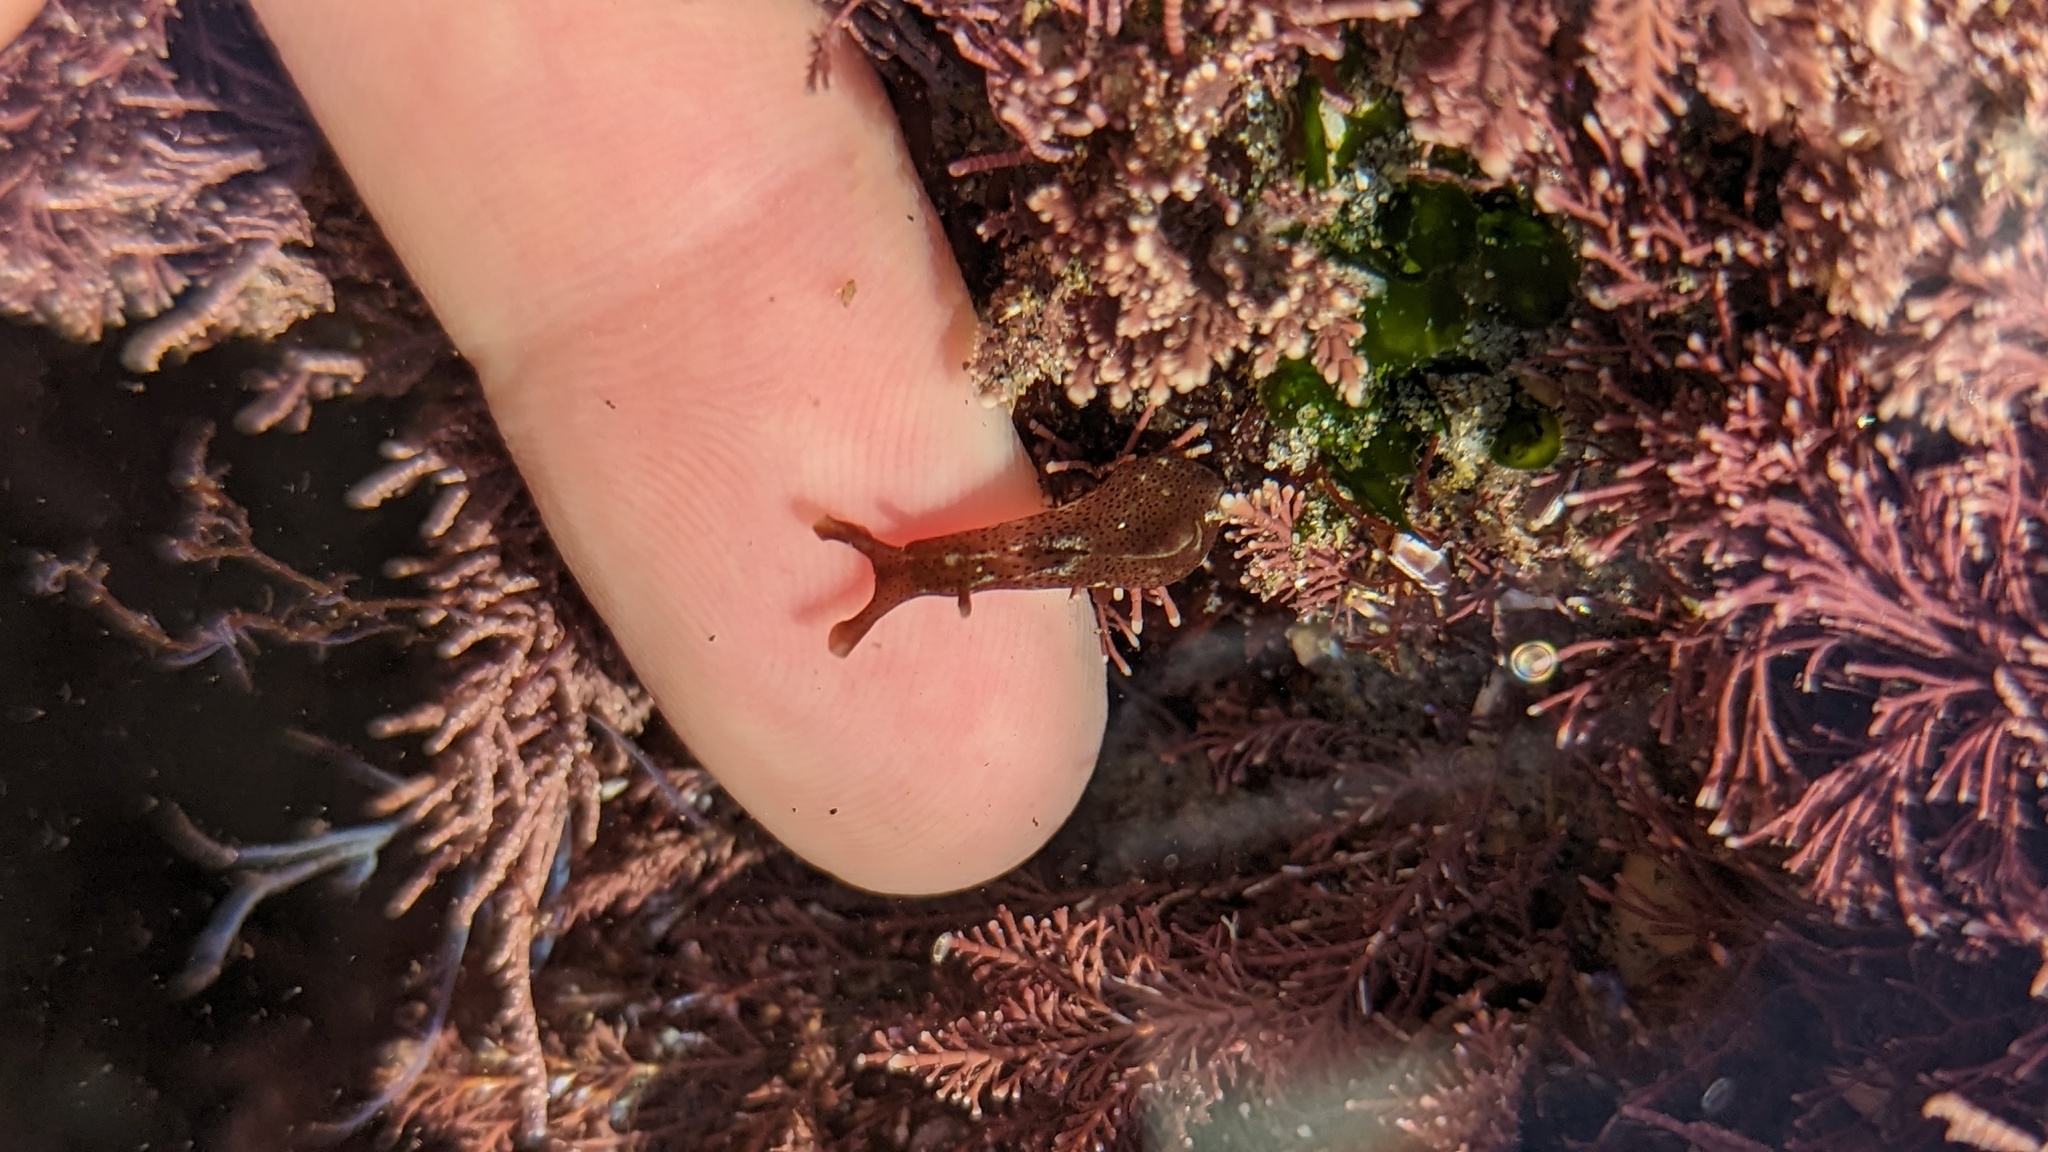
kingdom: Animalia
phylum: Mollusca
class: Gastropoda
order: Aplysiida
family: Aplysiidae
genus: Aplysia
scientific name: Aplysia californica
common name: California seahare
